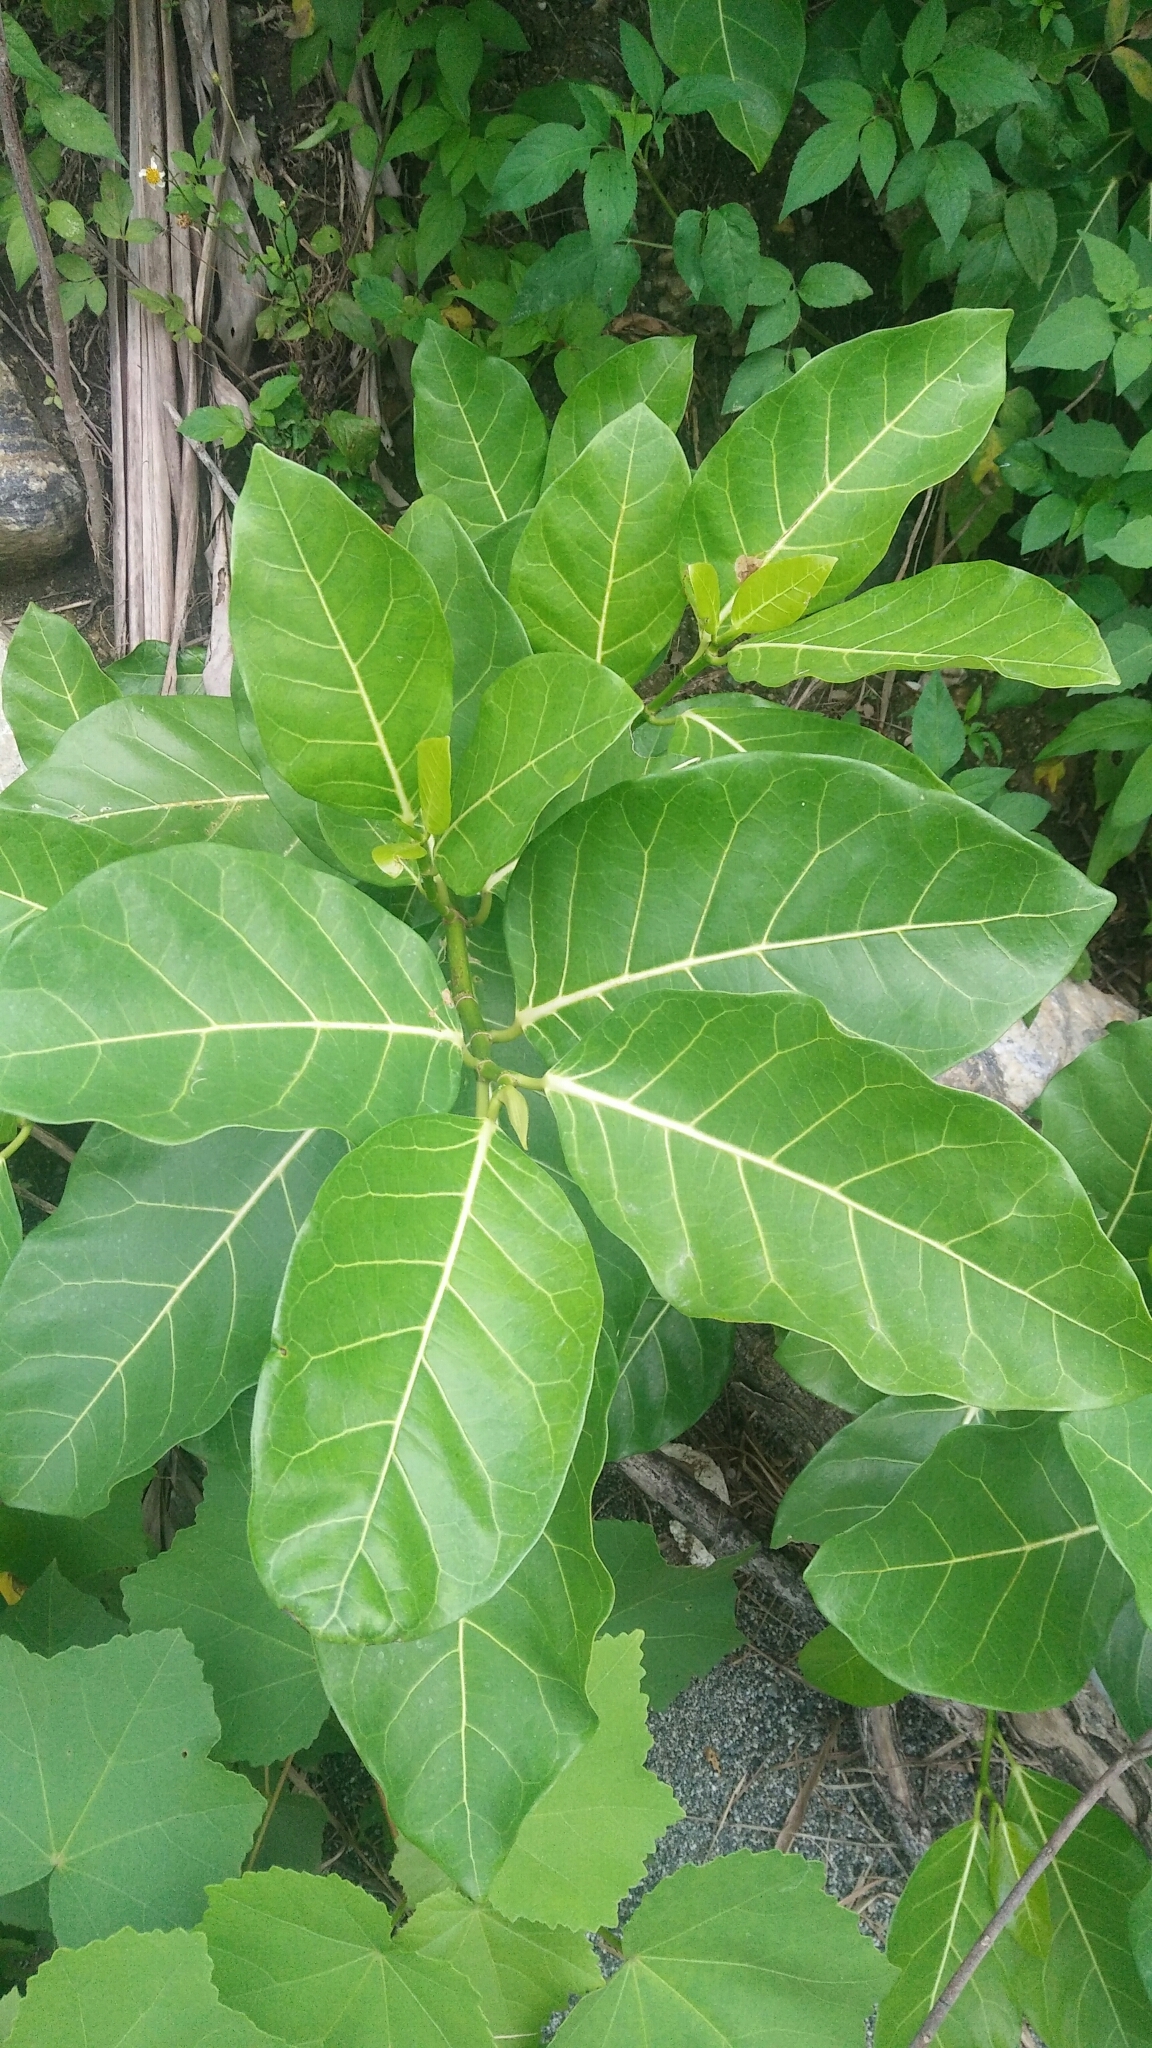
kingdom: Plantae
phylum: Tracheophyta
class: Magnoliopsida
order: Rosales
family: Moraceae
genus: Ficus
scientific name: Ficus septica
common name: Septic fig
